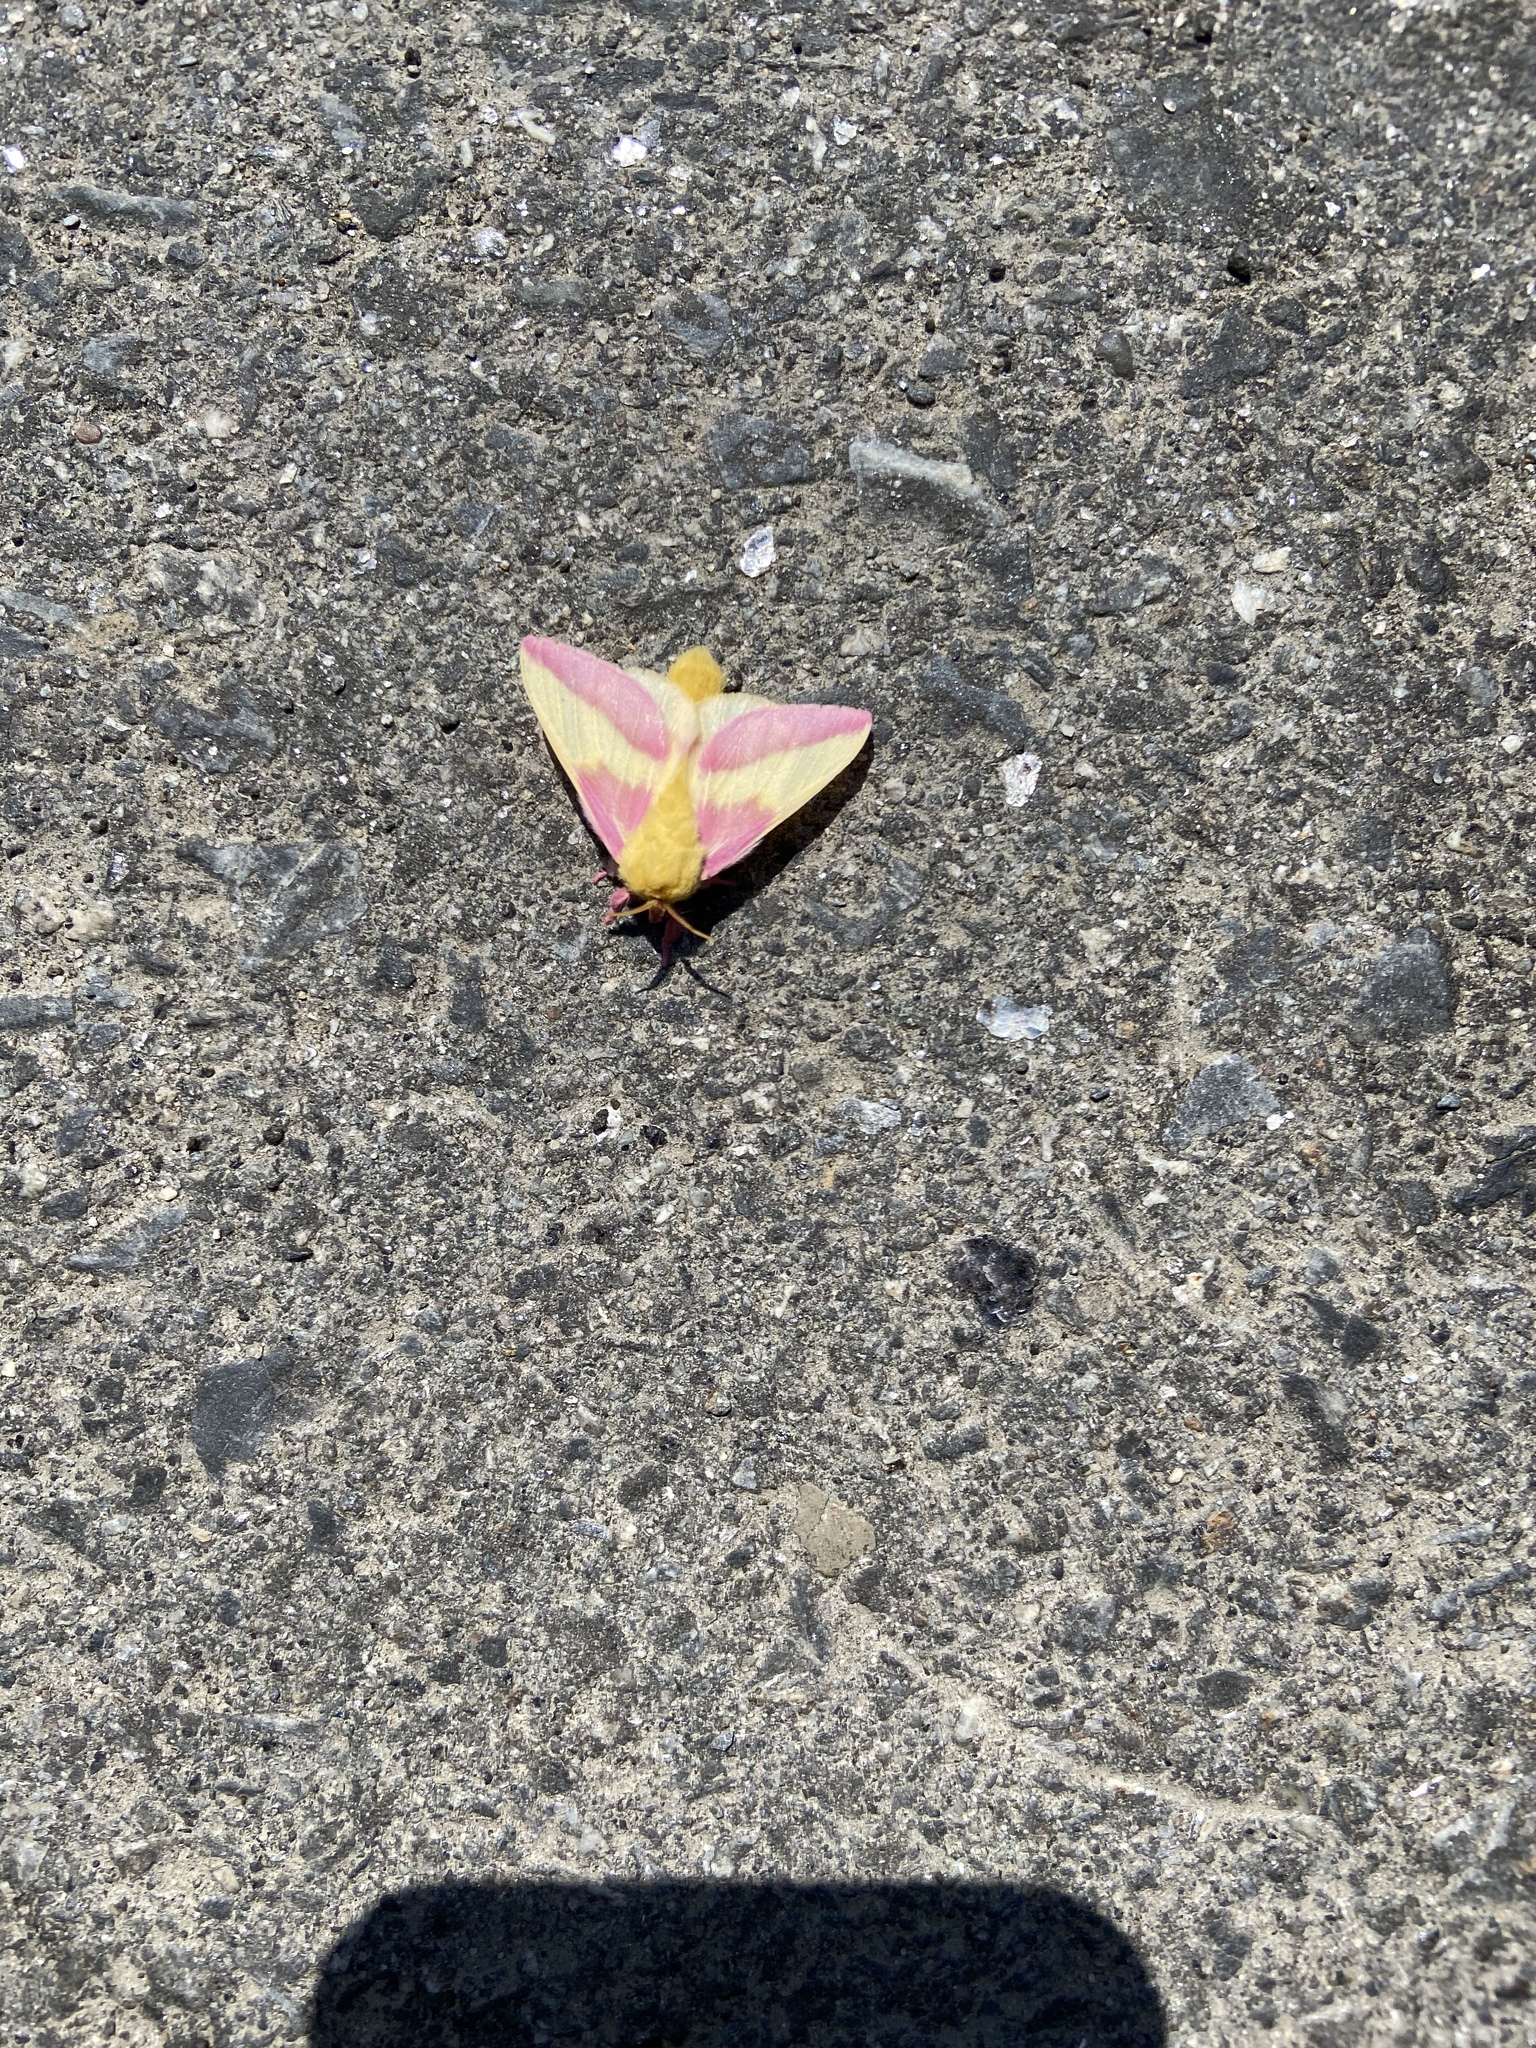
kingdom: Animalia
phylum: Arthropoda
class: Insecta
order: Lepidoptera
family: Saturniidae
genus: Dryocampa
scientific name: Dryocampa rubicunda
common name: Rosy maple moth
